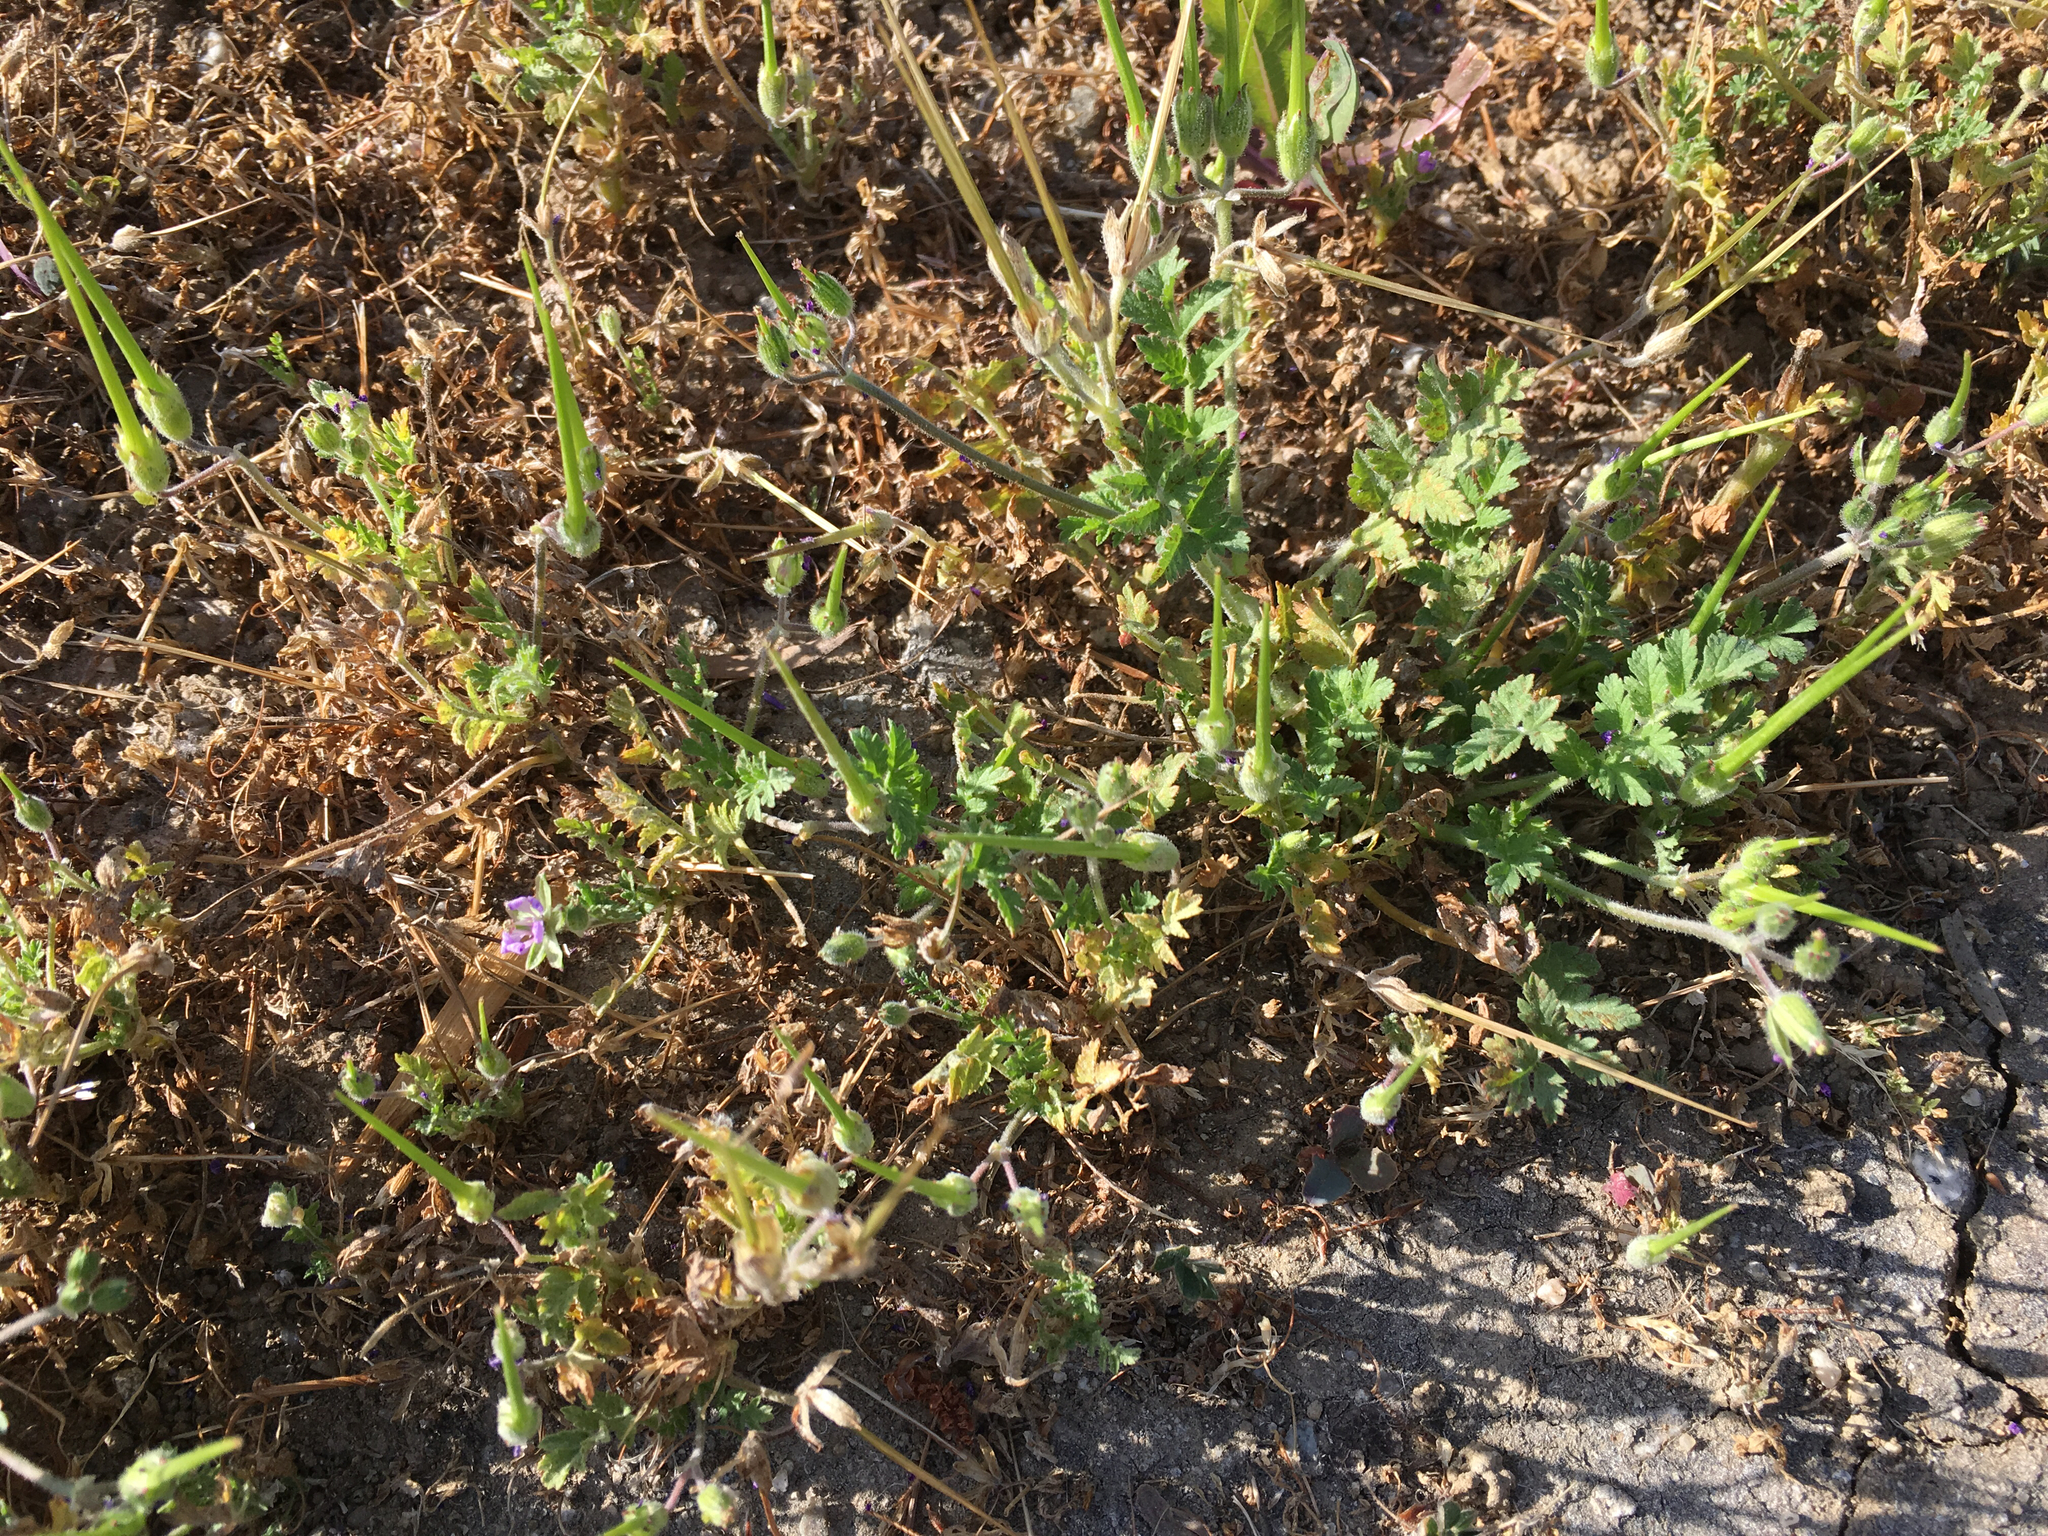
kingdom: Plantae
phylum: Tracheophyta
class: Magnoliopsida
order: Geraniales
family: Geraniaceae
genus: Erodium
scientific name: Erodium cicutarium
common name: Common stork's-bill
